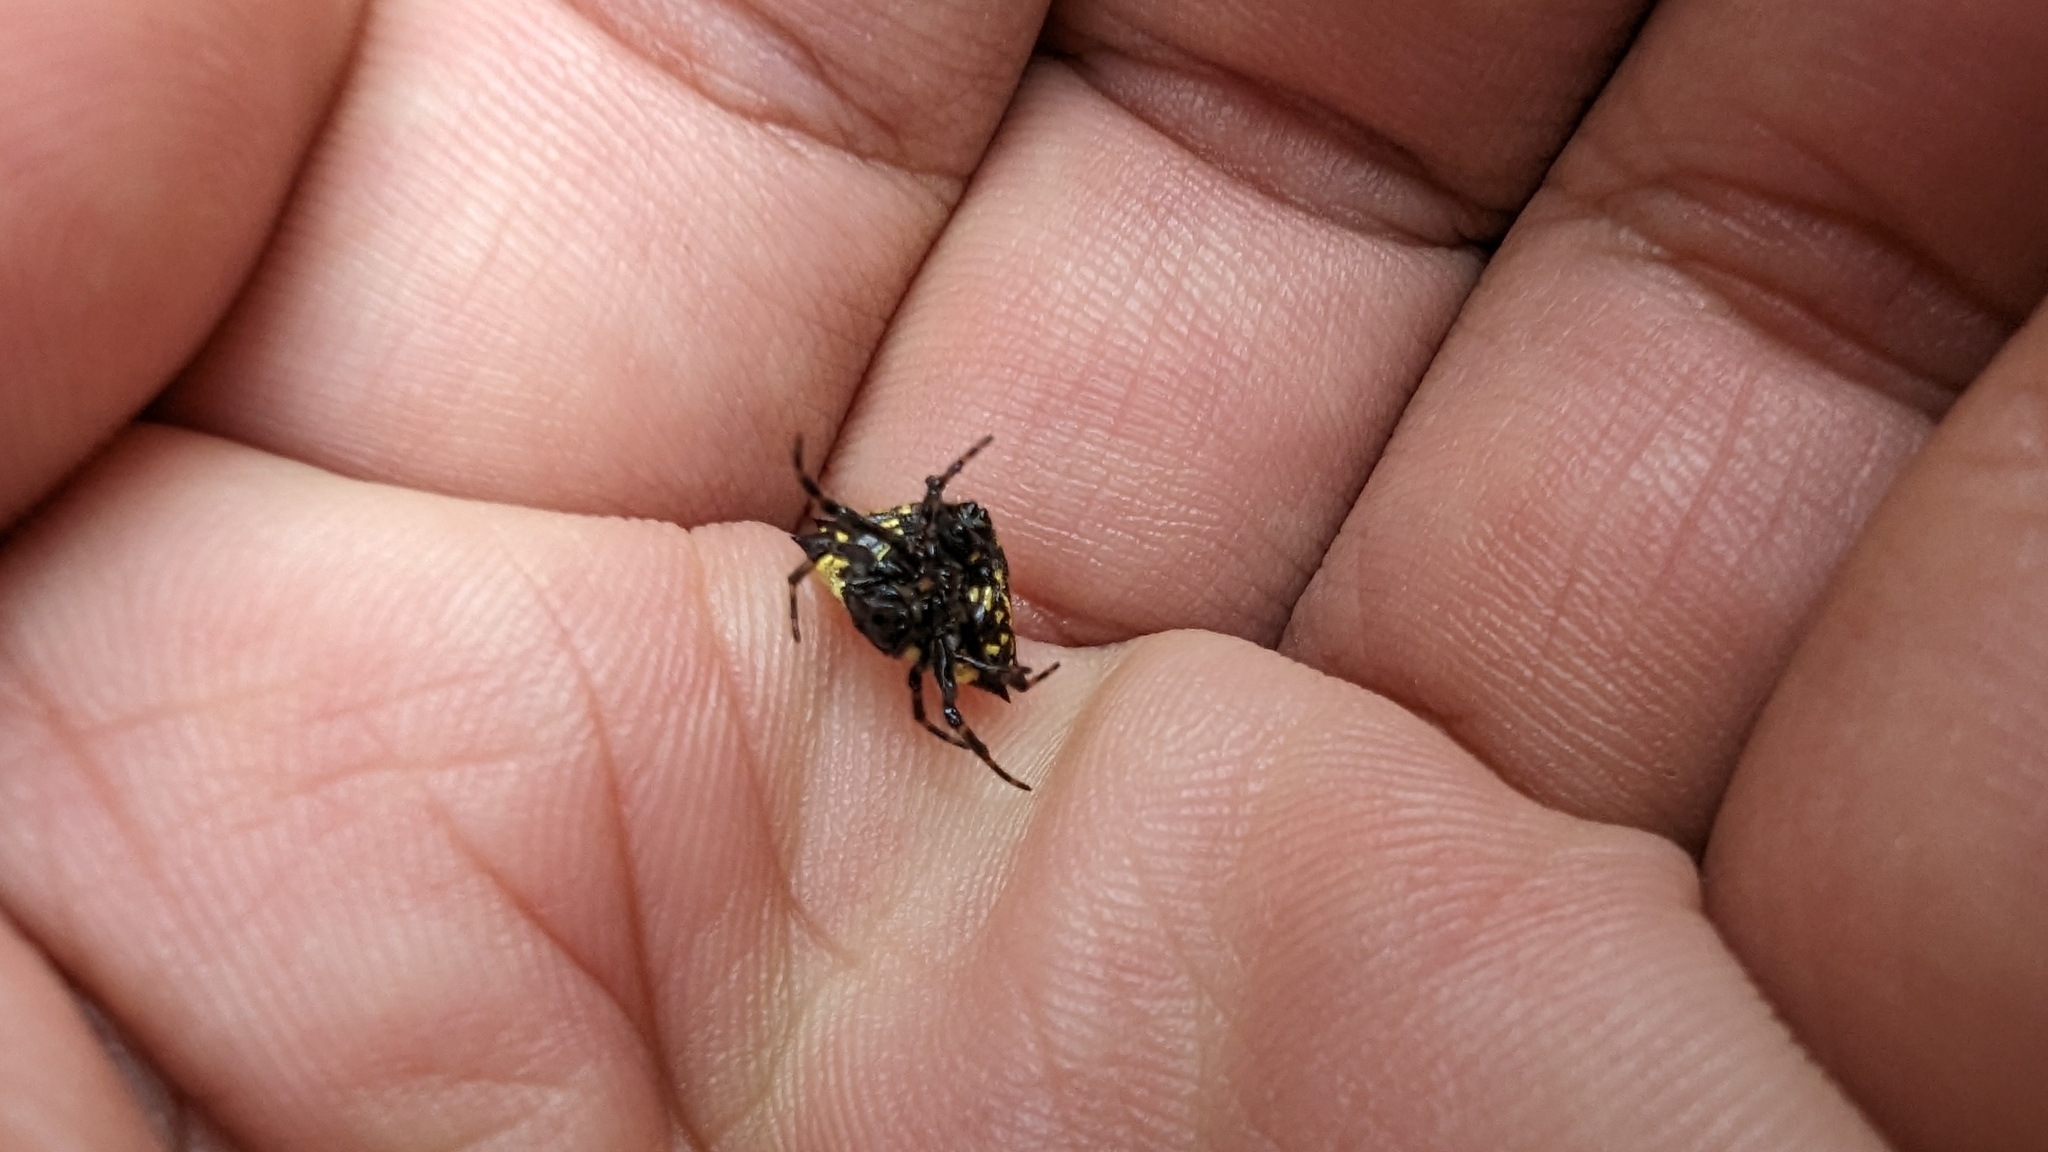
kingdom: Animalia
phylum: Arthropoda
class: Arachnida
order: Araneae
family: Araneidae
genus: Gasteracantha
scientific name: Gasteracantha kuhli
